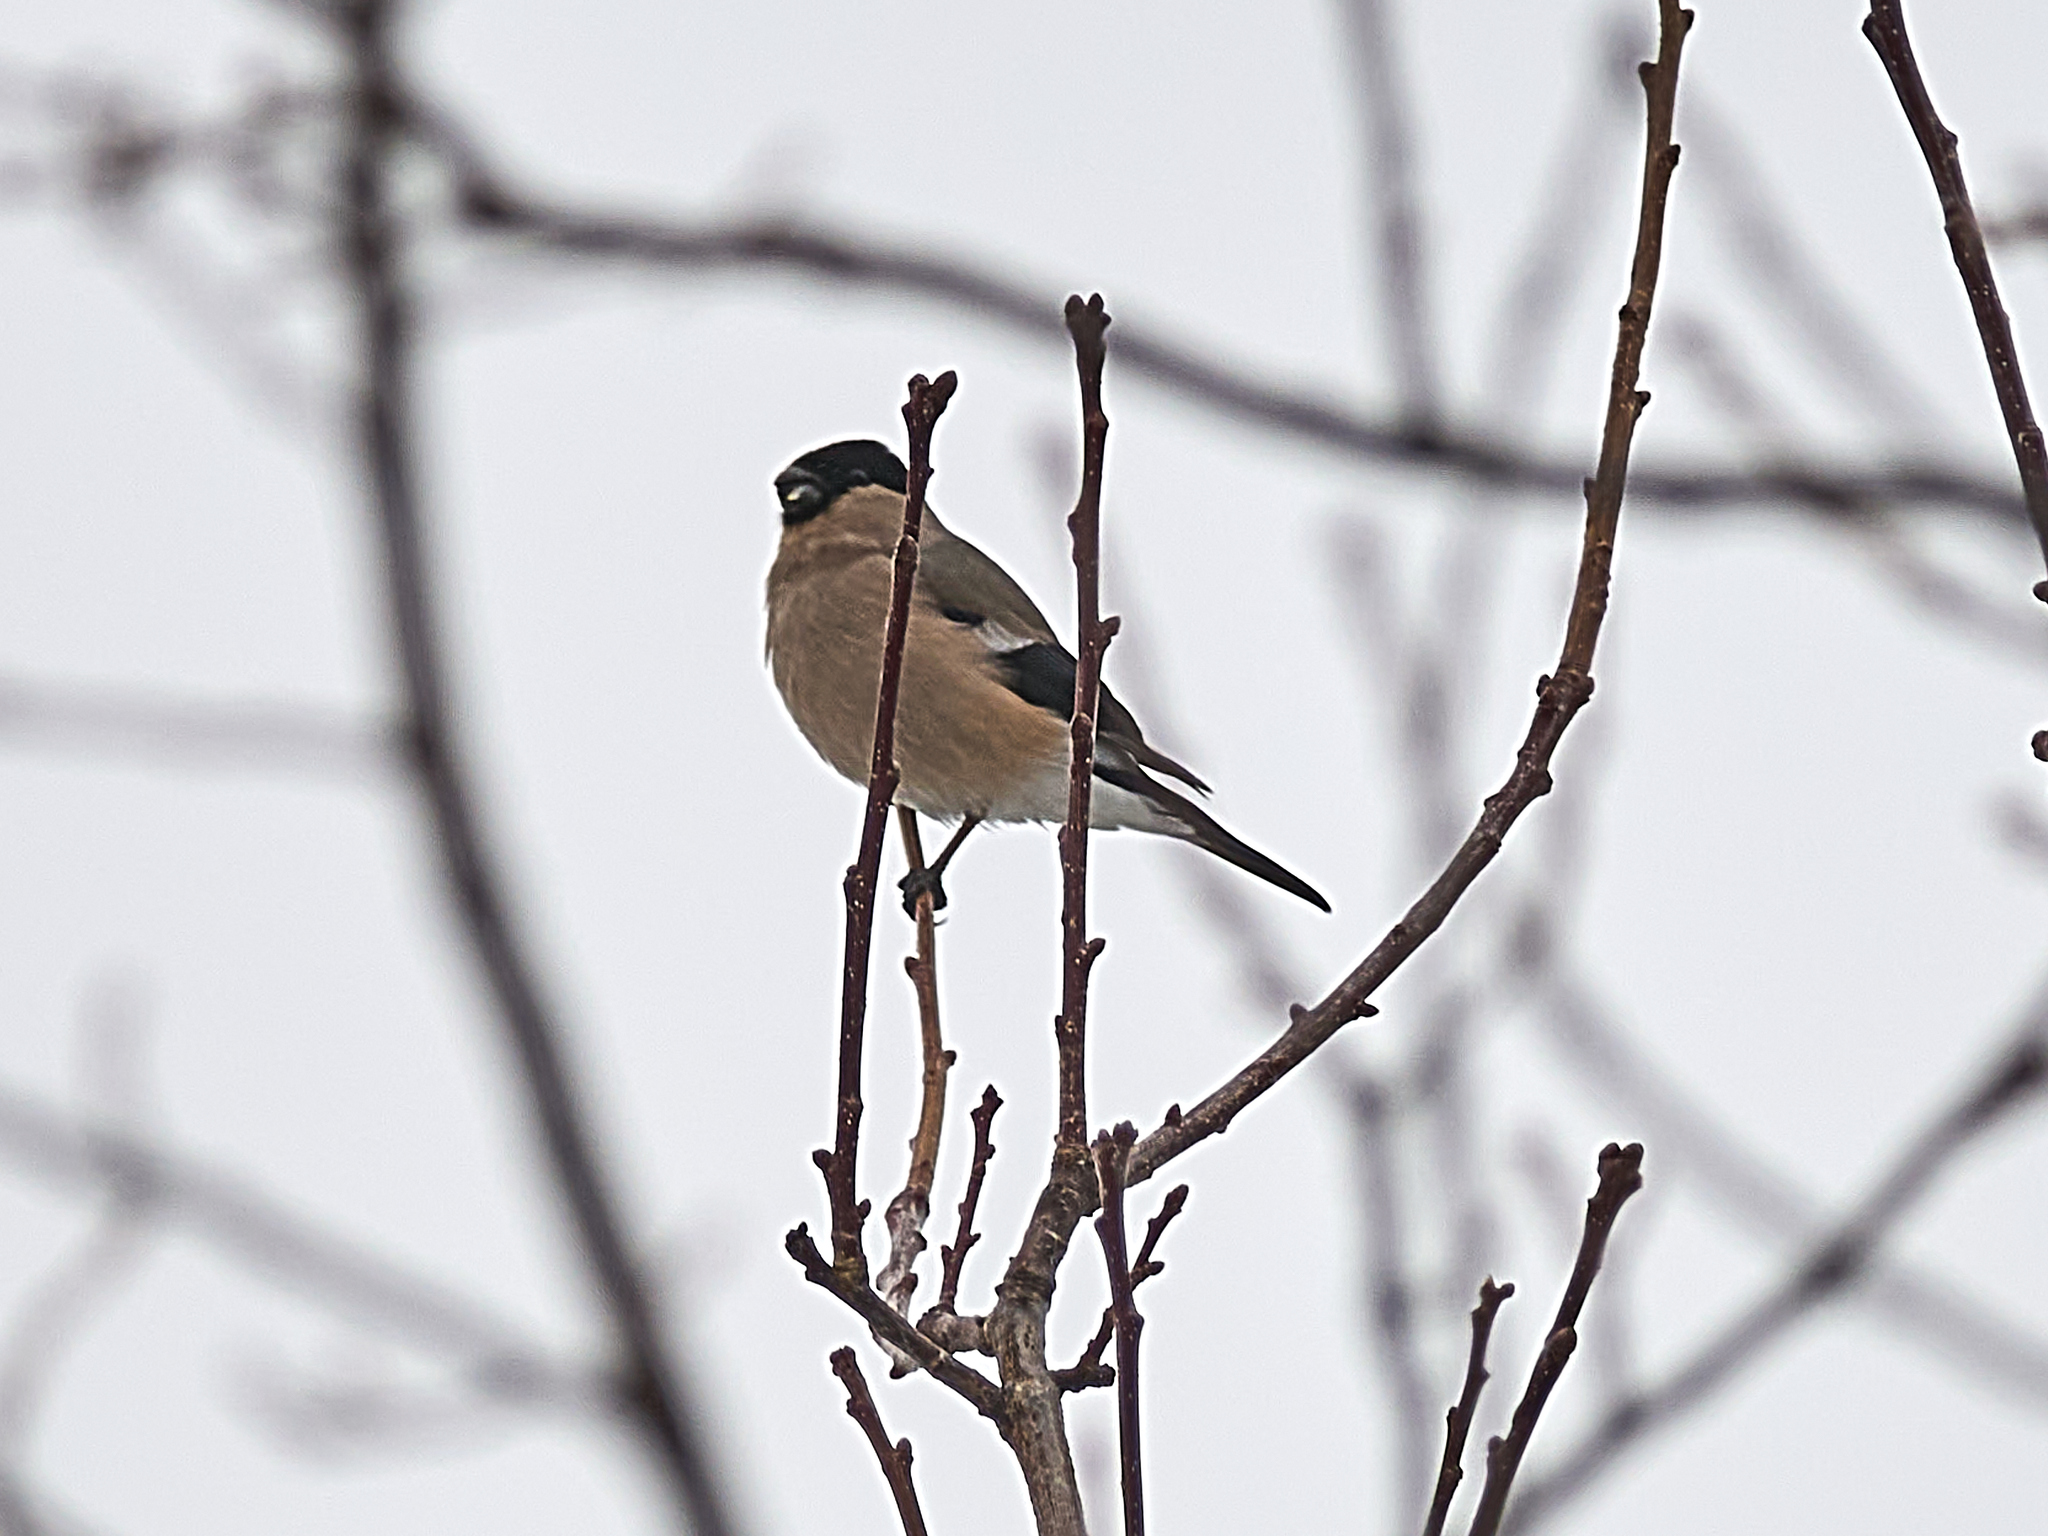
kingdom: Animalia
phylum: Chordata
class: Aves
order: Passeriformes
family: Fringillidae
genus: Pyrrhula
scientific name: Pyrrhula pyrrhula
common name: Eurasian bullfinch
